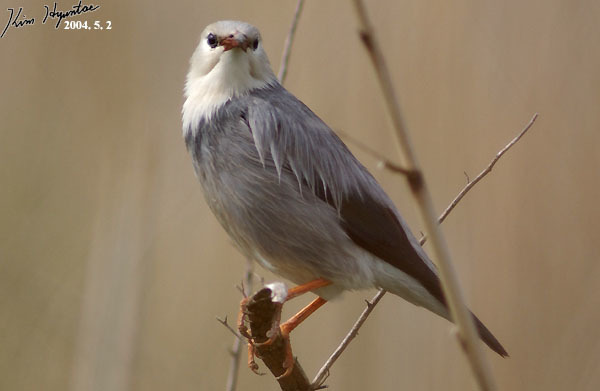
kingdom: Animalia
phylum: Chordata
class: Aves
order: Passeriformes
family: Sturnidae
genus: Spodiopsar
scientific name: Spodiopsar sericeus
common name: Red-billed starling
